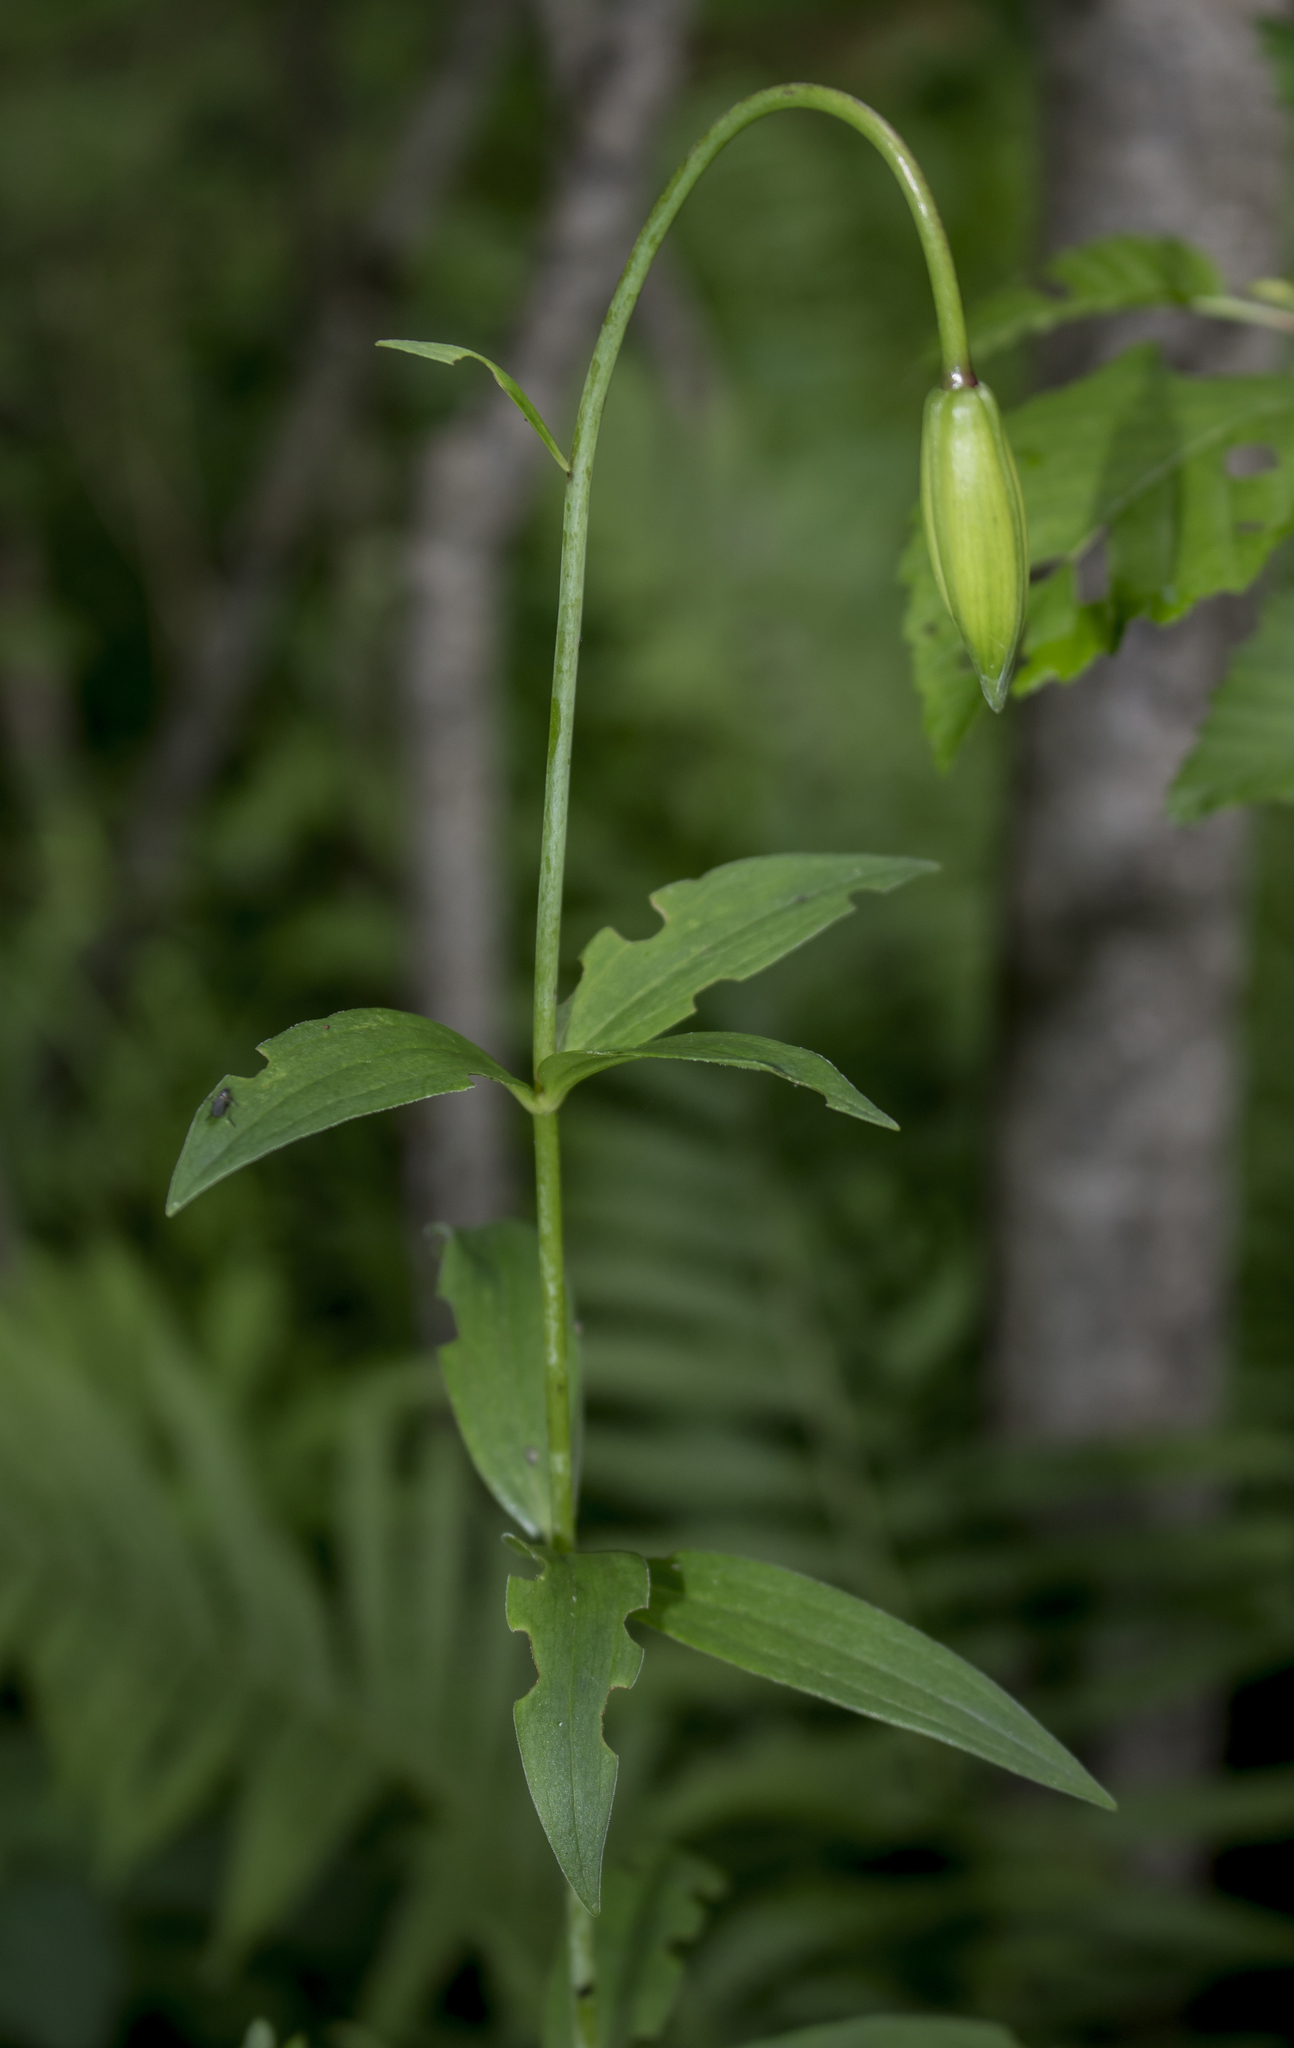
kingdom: Plantae
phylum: Tracheophyta
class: Liliopsida
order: Liliales
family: Liliaceae
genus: Lilium
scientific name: Lilium michiganense
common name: Michigan lily
